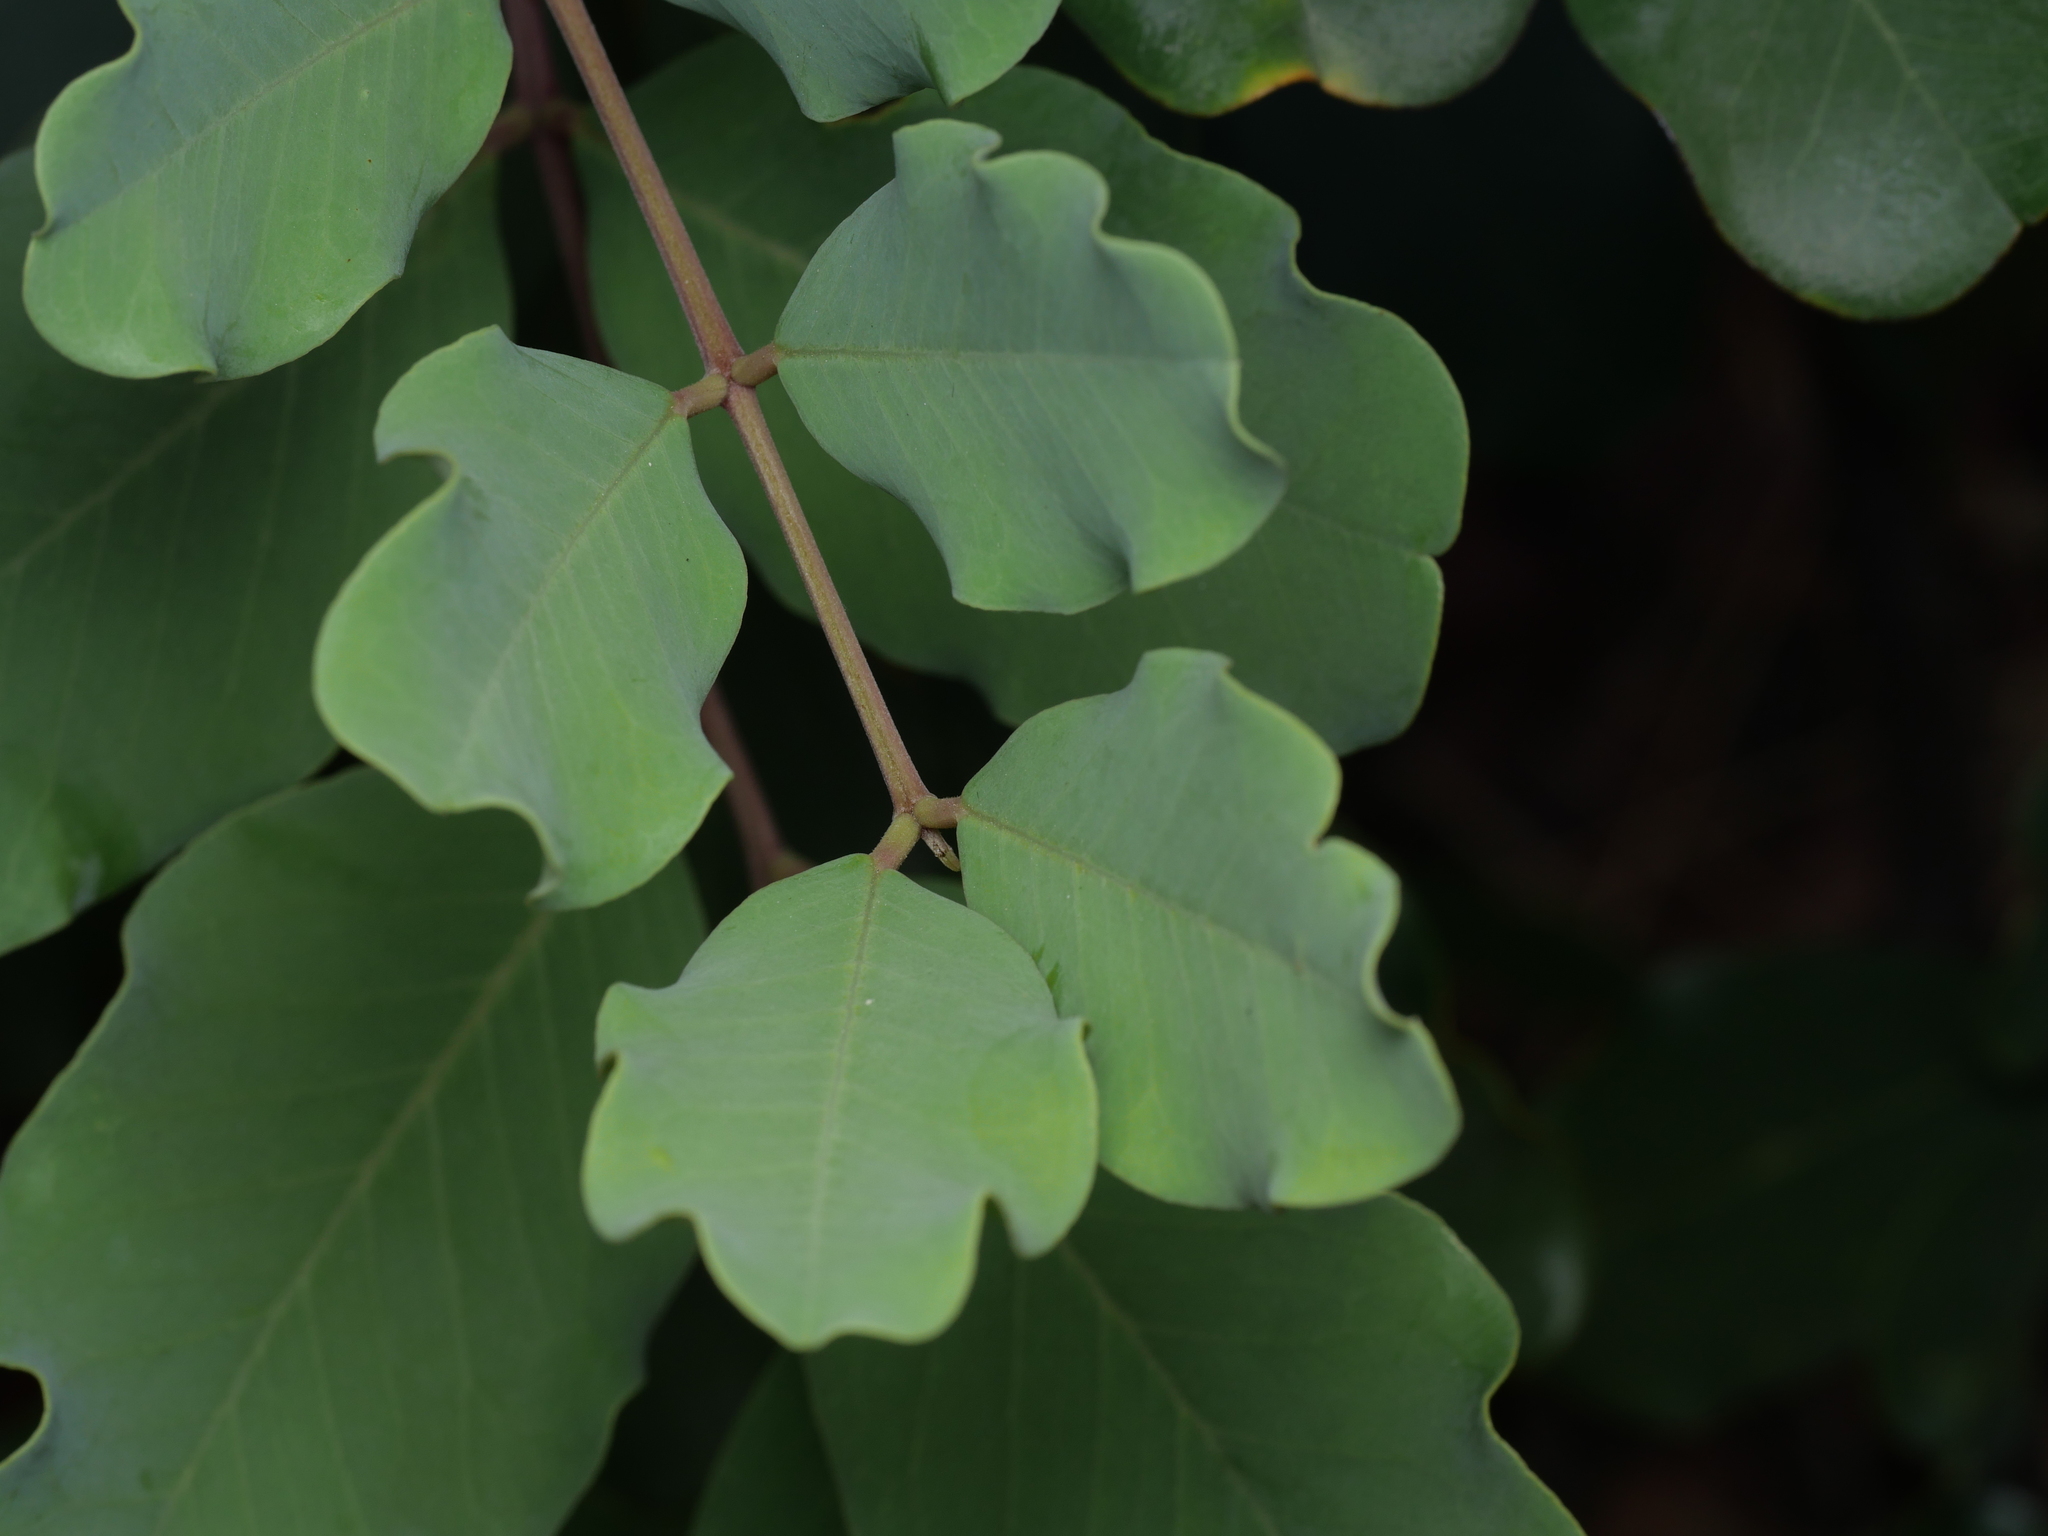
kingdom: Plantae
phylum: Tracheophyta
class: Magnoliopsida
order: Fabales
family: Fabaceae
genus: Ceratonia
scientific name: Ceratonia siliqua
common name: Carob
